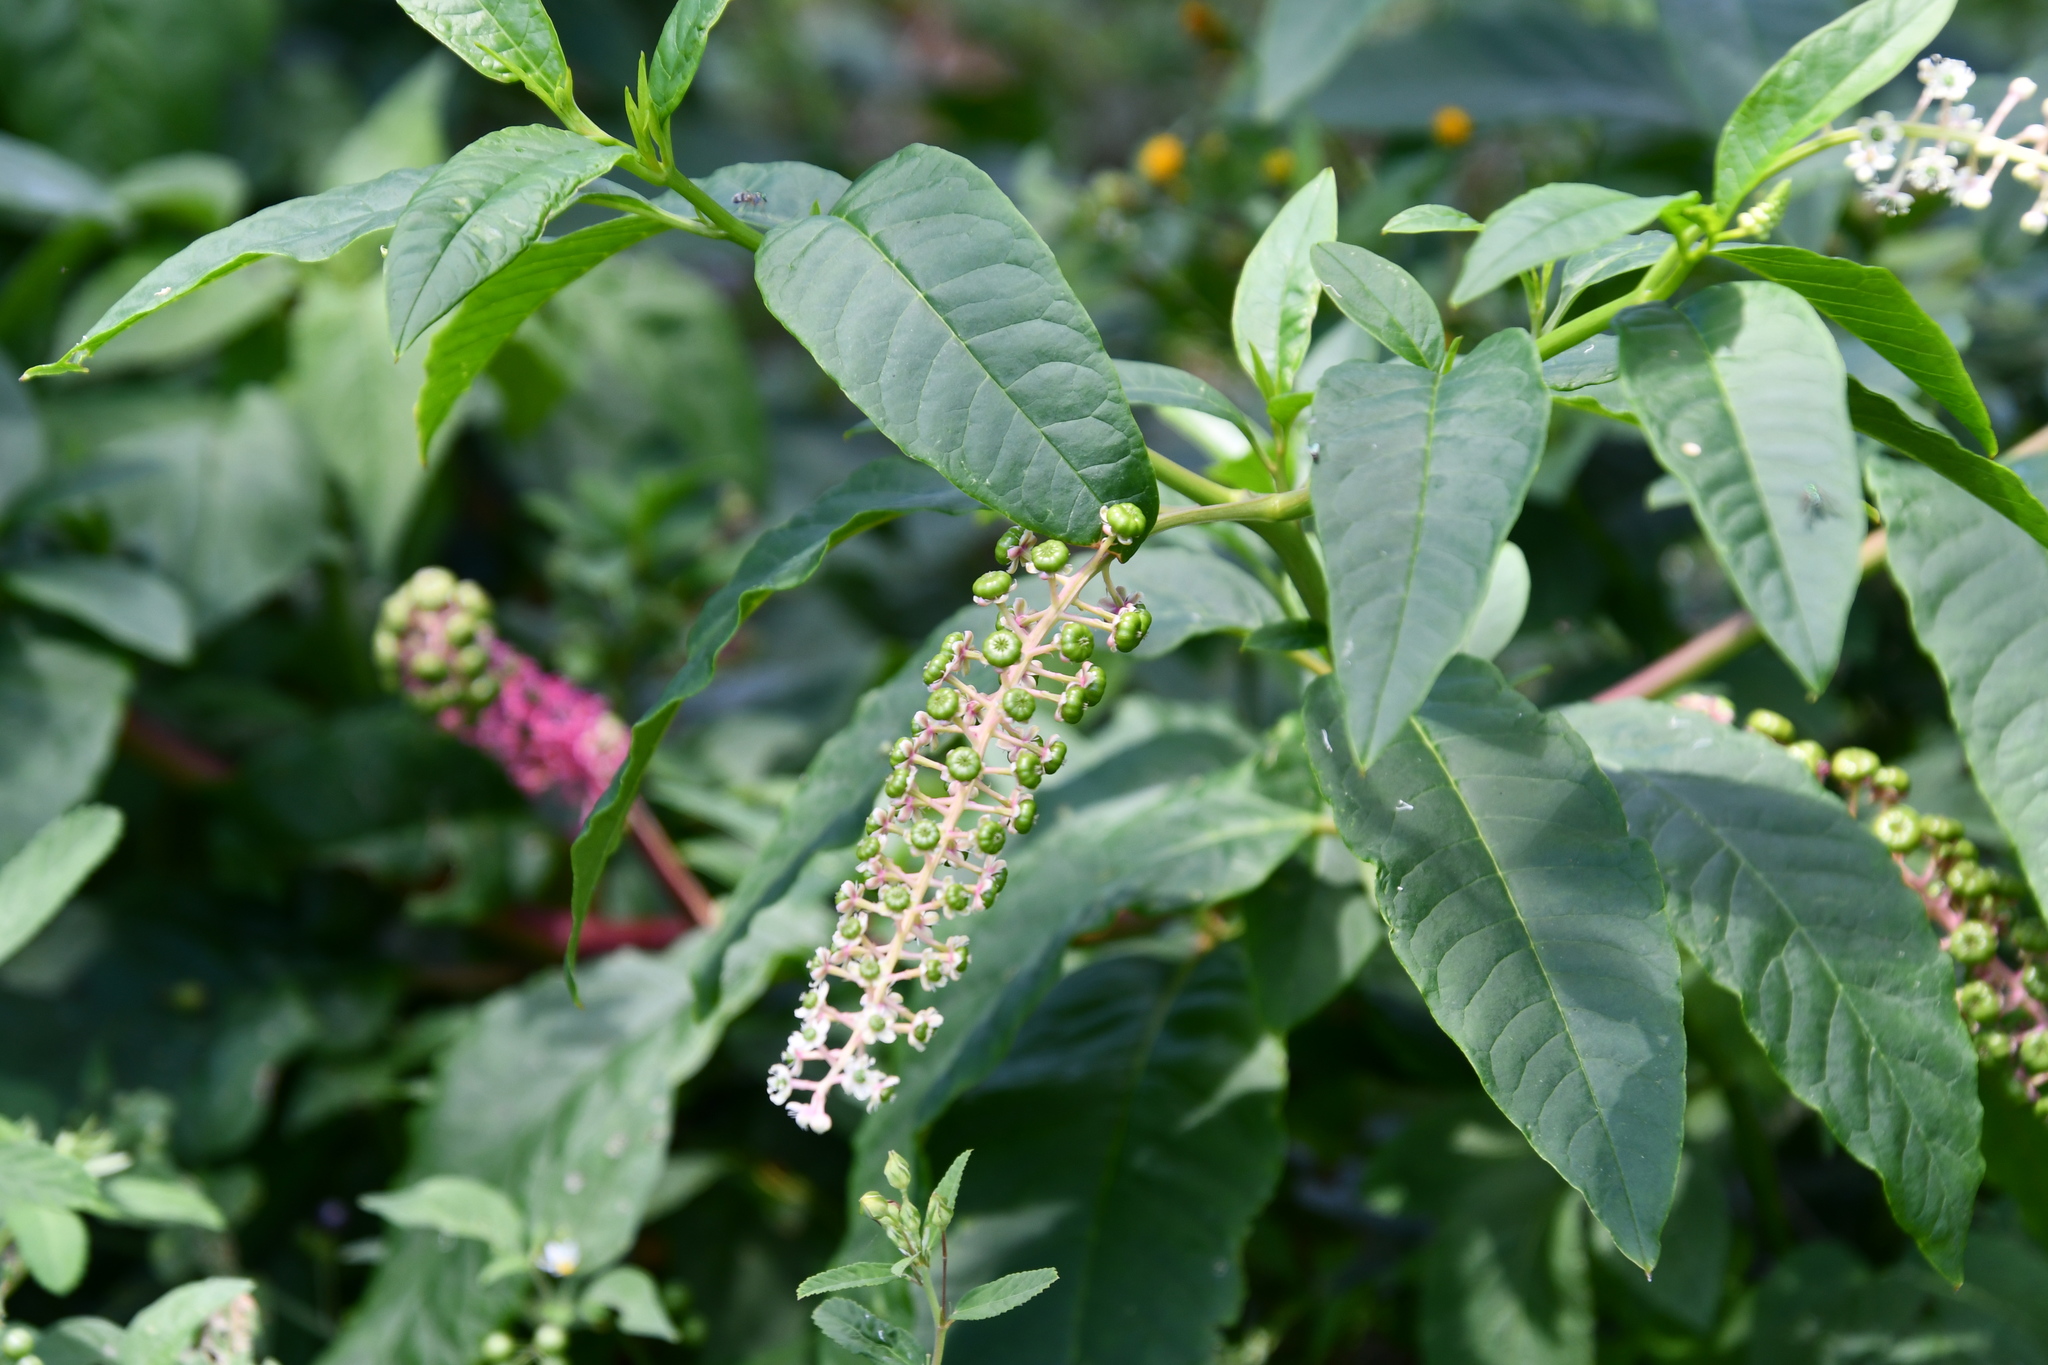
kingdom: Plantae
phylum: Tracheophyta
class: Magnoliopsida
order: Caryophyllales
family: Phytolaccaceae
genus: Phytolacca
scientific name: Phytolacca americana
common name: American pokeweed
